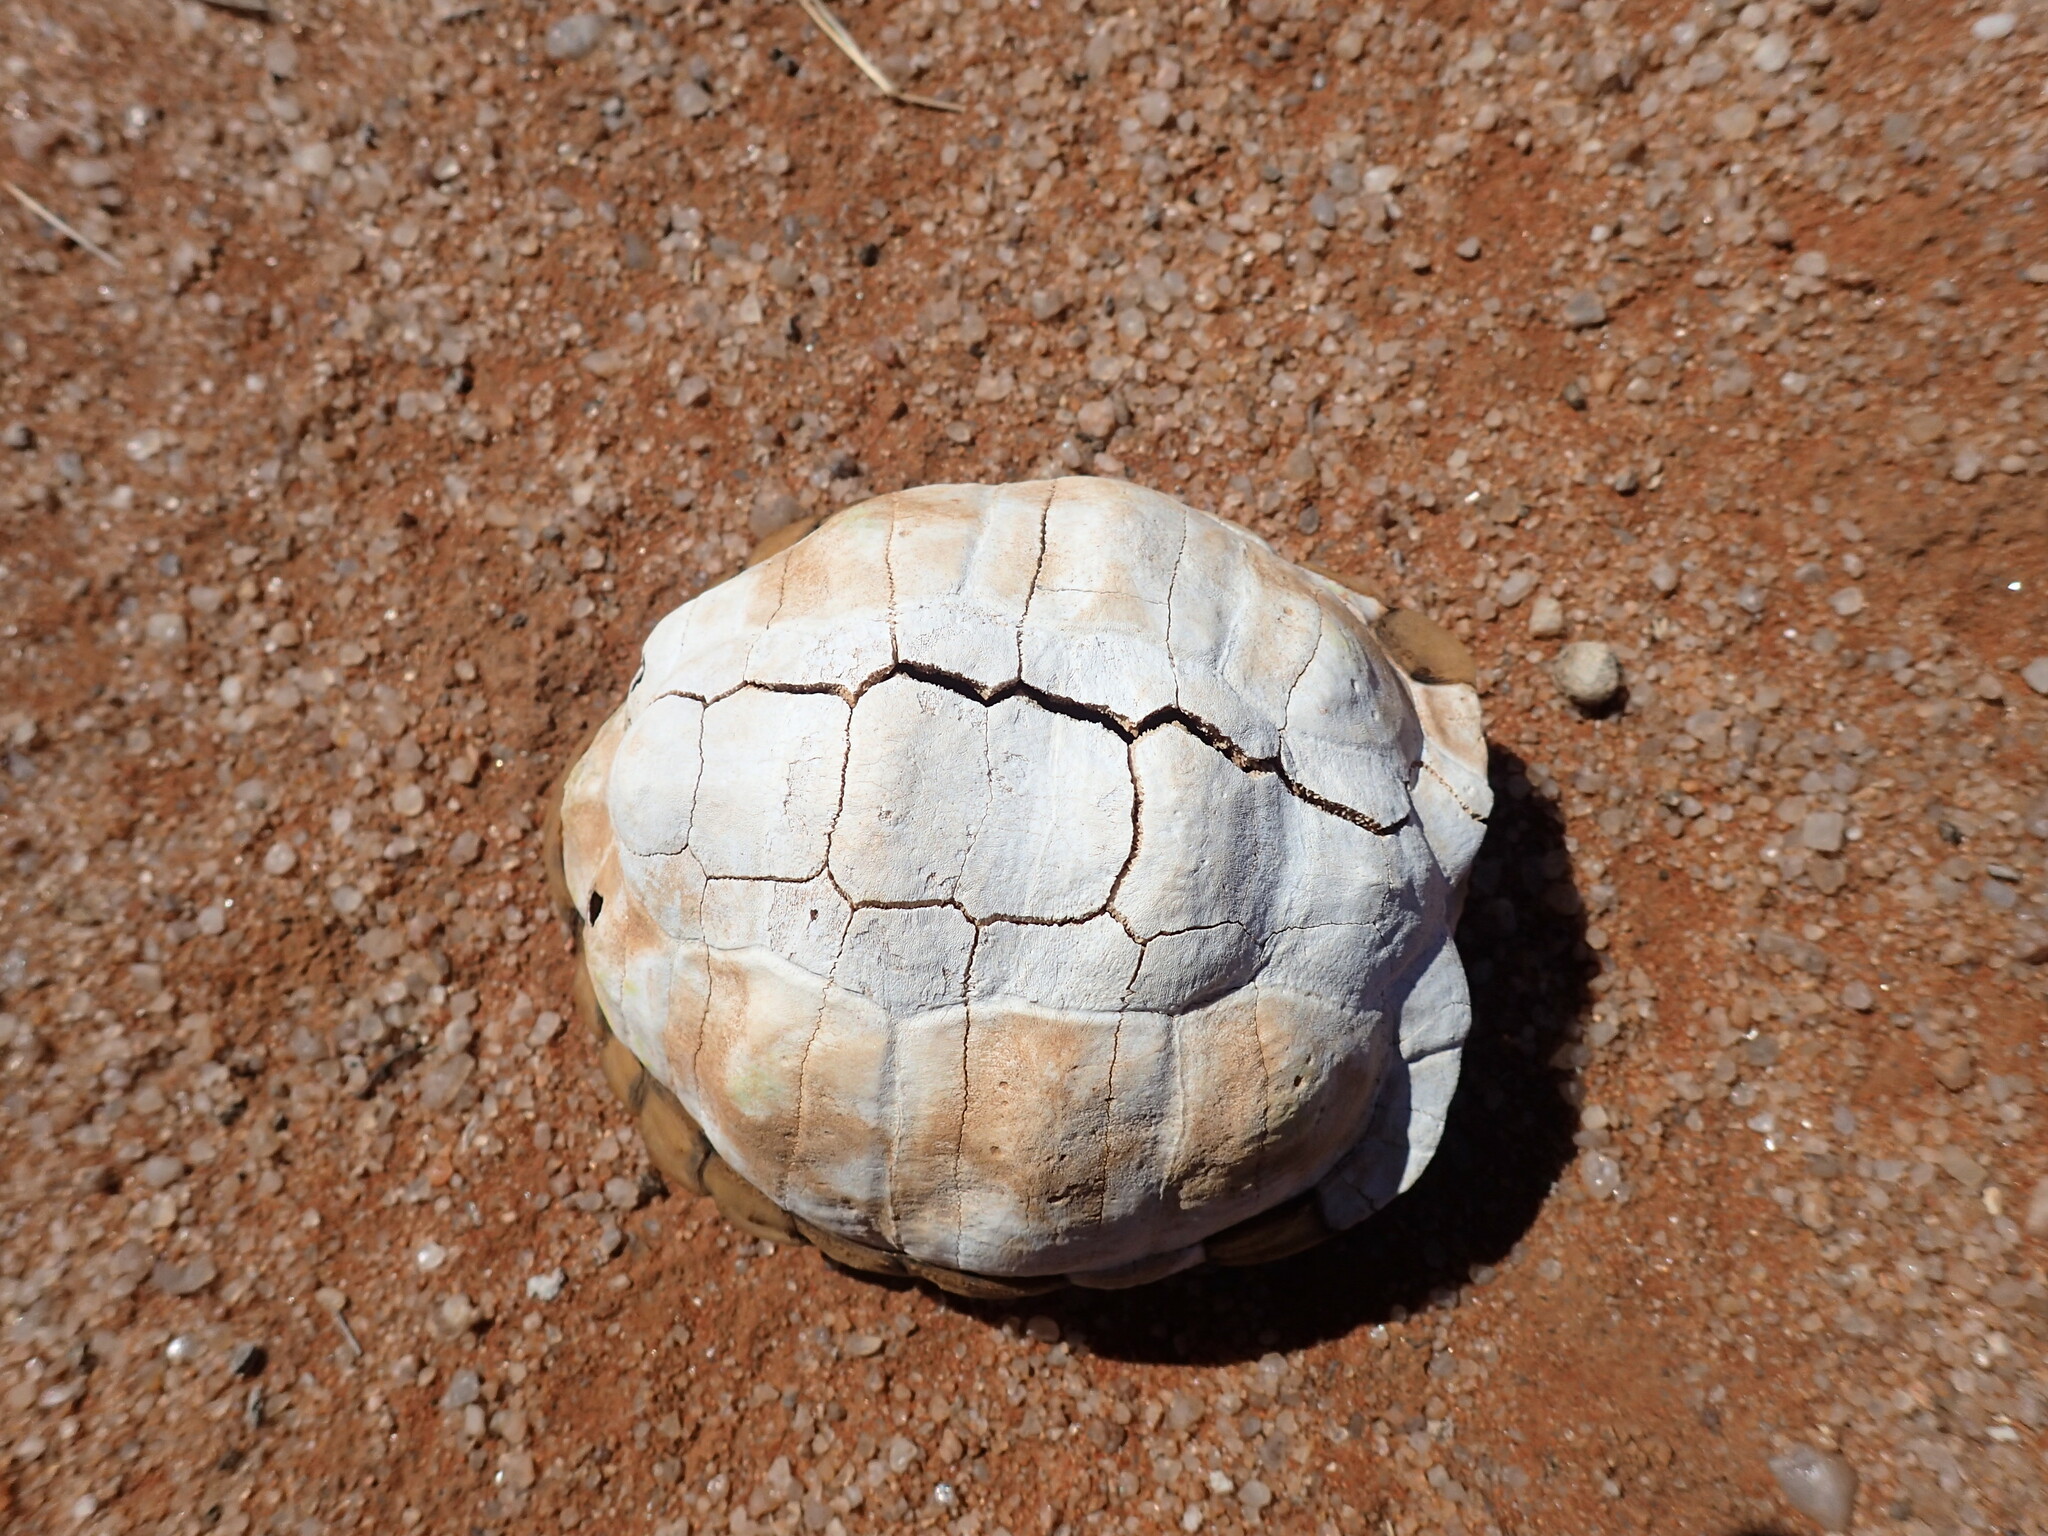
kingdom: Animalia
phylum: Chordata
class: Testudines
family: Testudinidae
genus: Psammobates
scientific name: Psammobates tentorius
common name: Tent tortoise
